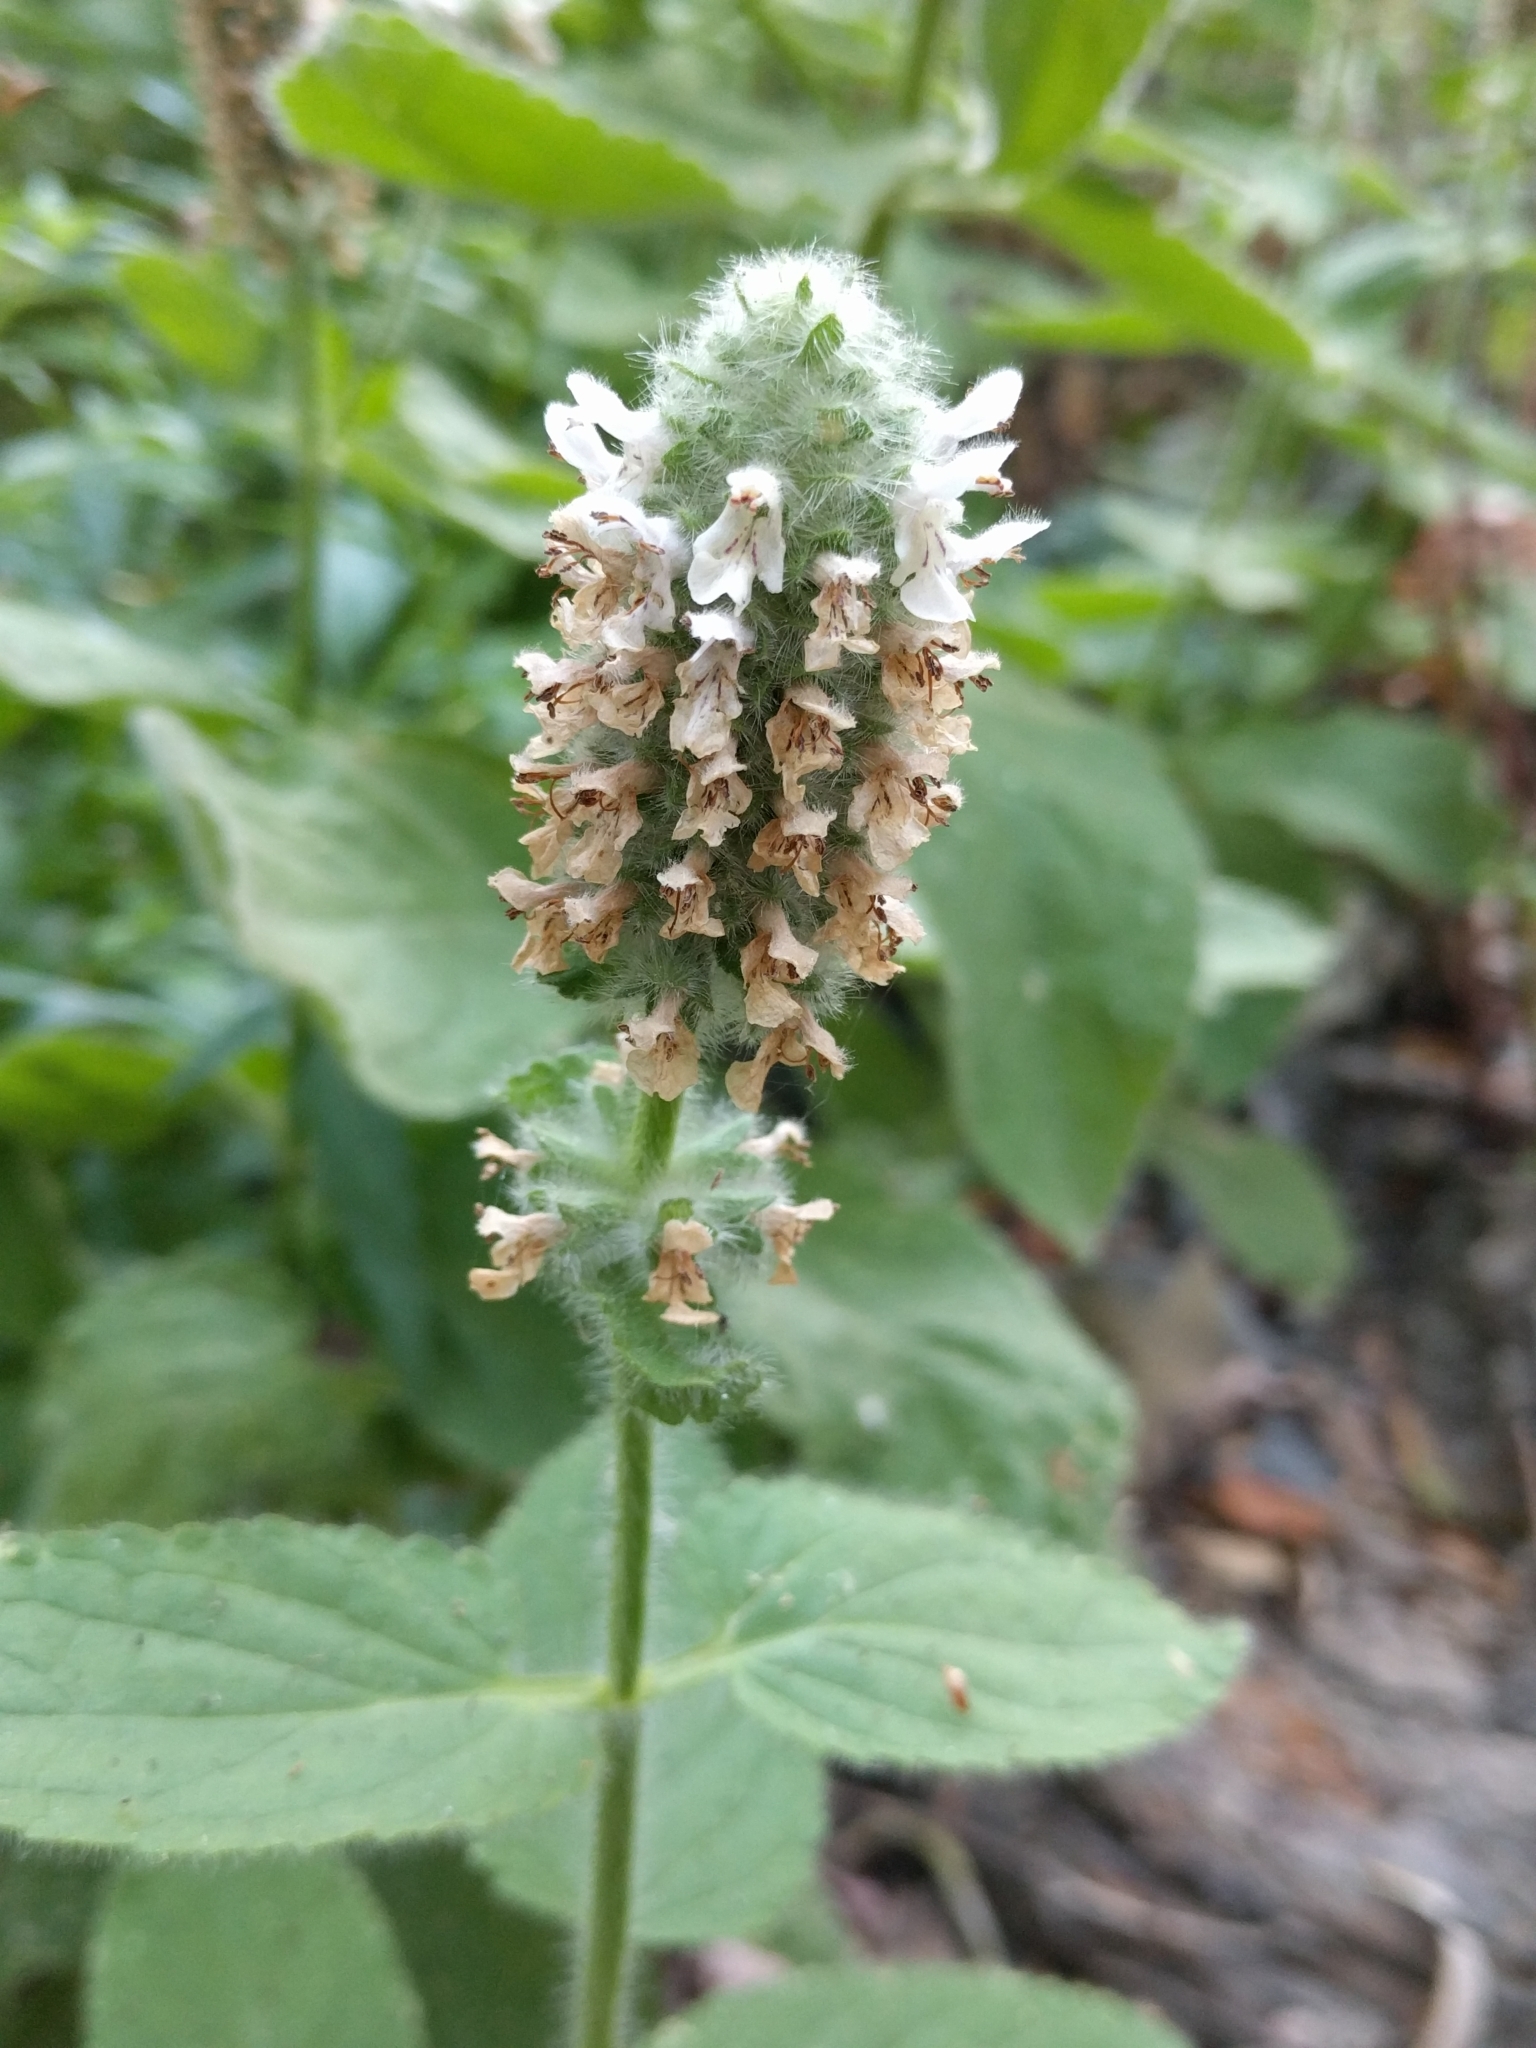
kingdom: Plantae
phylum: Tracheophyta
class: Magnoliopsida
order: Lamiales
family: Lamiaceae
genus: Stachys
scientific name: Stachys pycnantha
